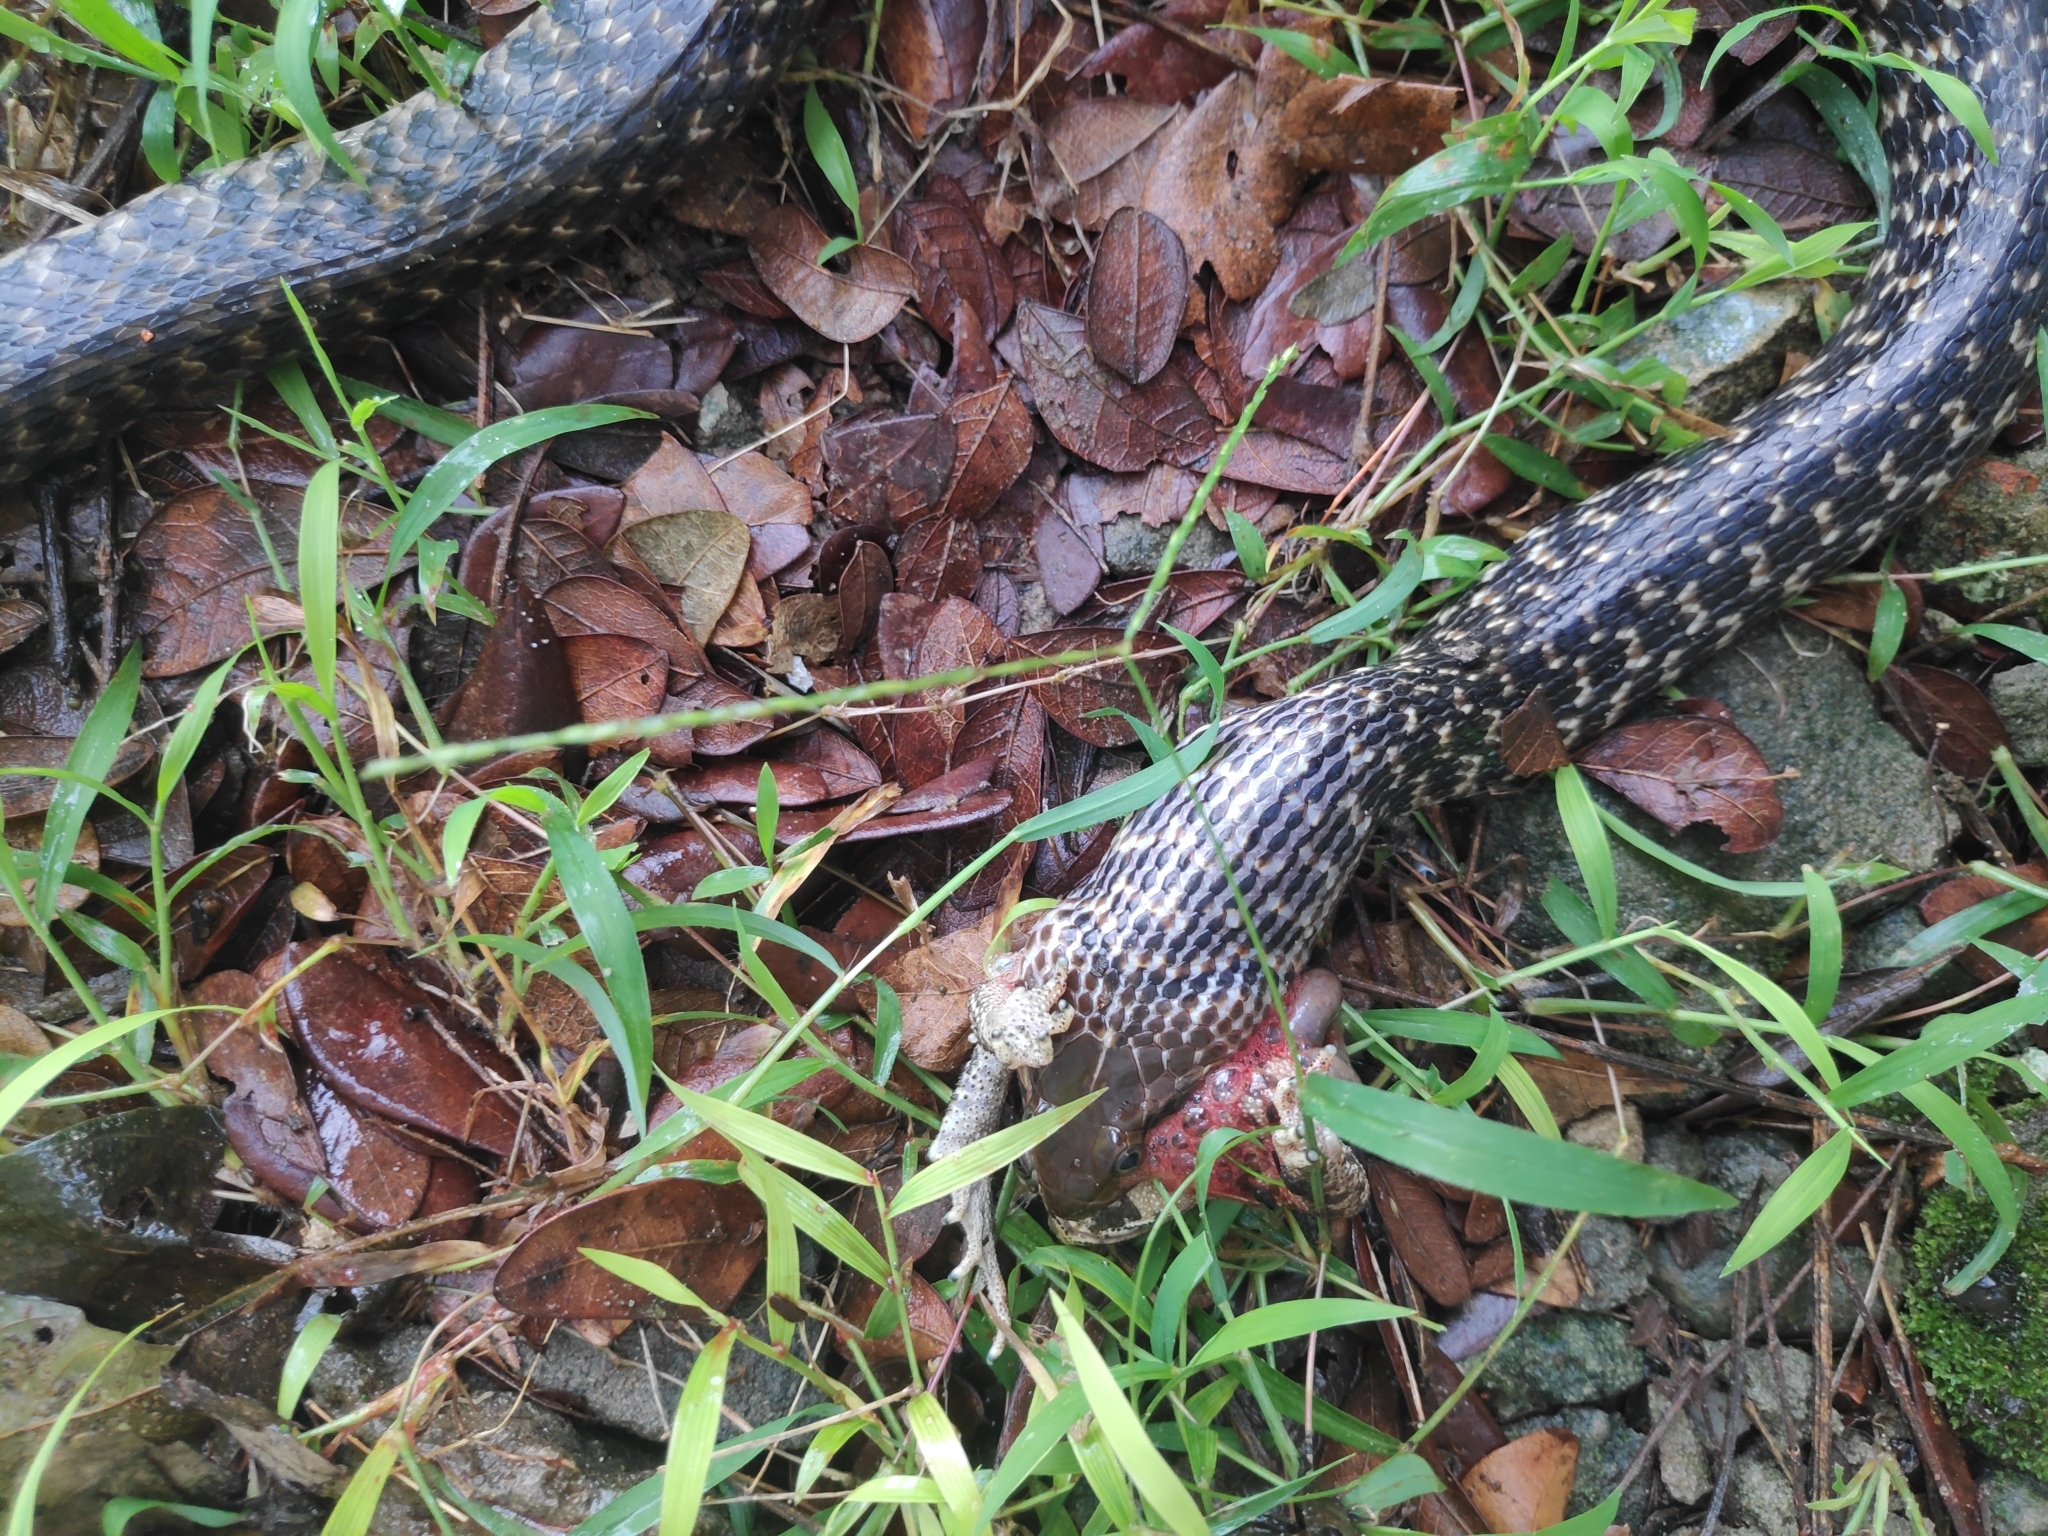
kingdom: Animalia
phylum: Chordata
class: Squamata
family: Colubridae
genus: Fowlea
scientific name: Fowlea piscator
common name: Asiatic water snake
